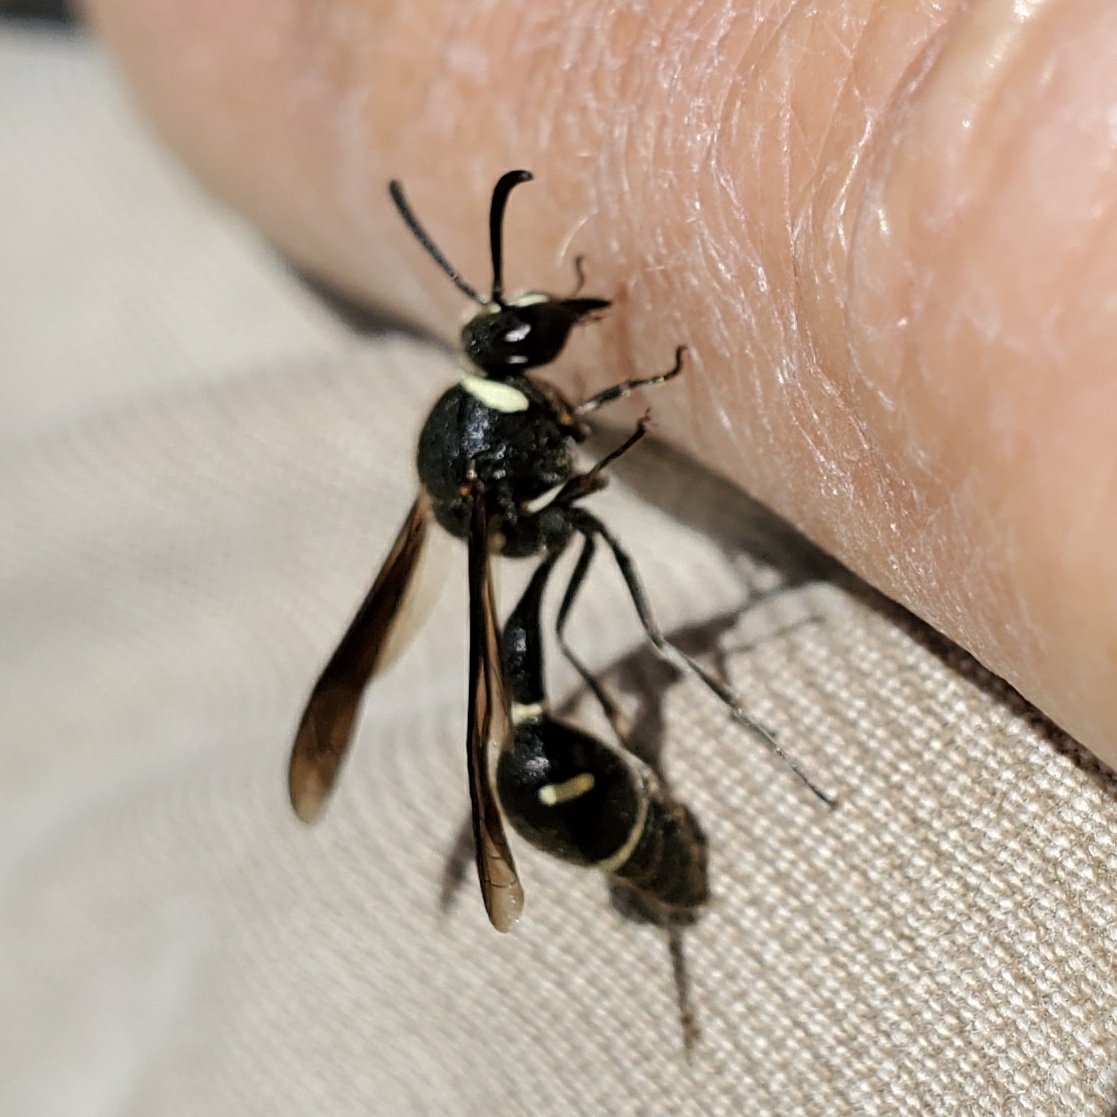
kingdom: Animalia
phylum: Arthropoda
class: Insecta
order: Hymenoptera
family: Vespidae
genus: Eumenes
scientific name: Eumenes fraternus
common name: Fraternal potter wasp
